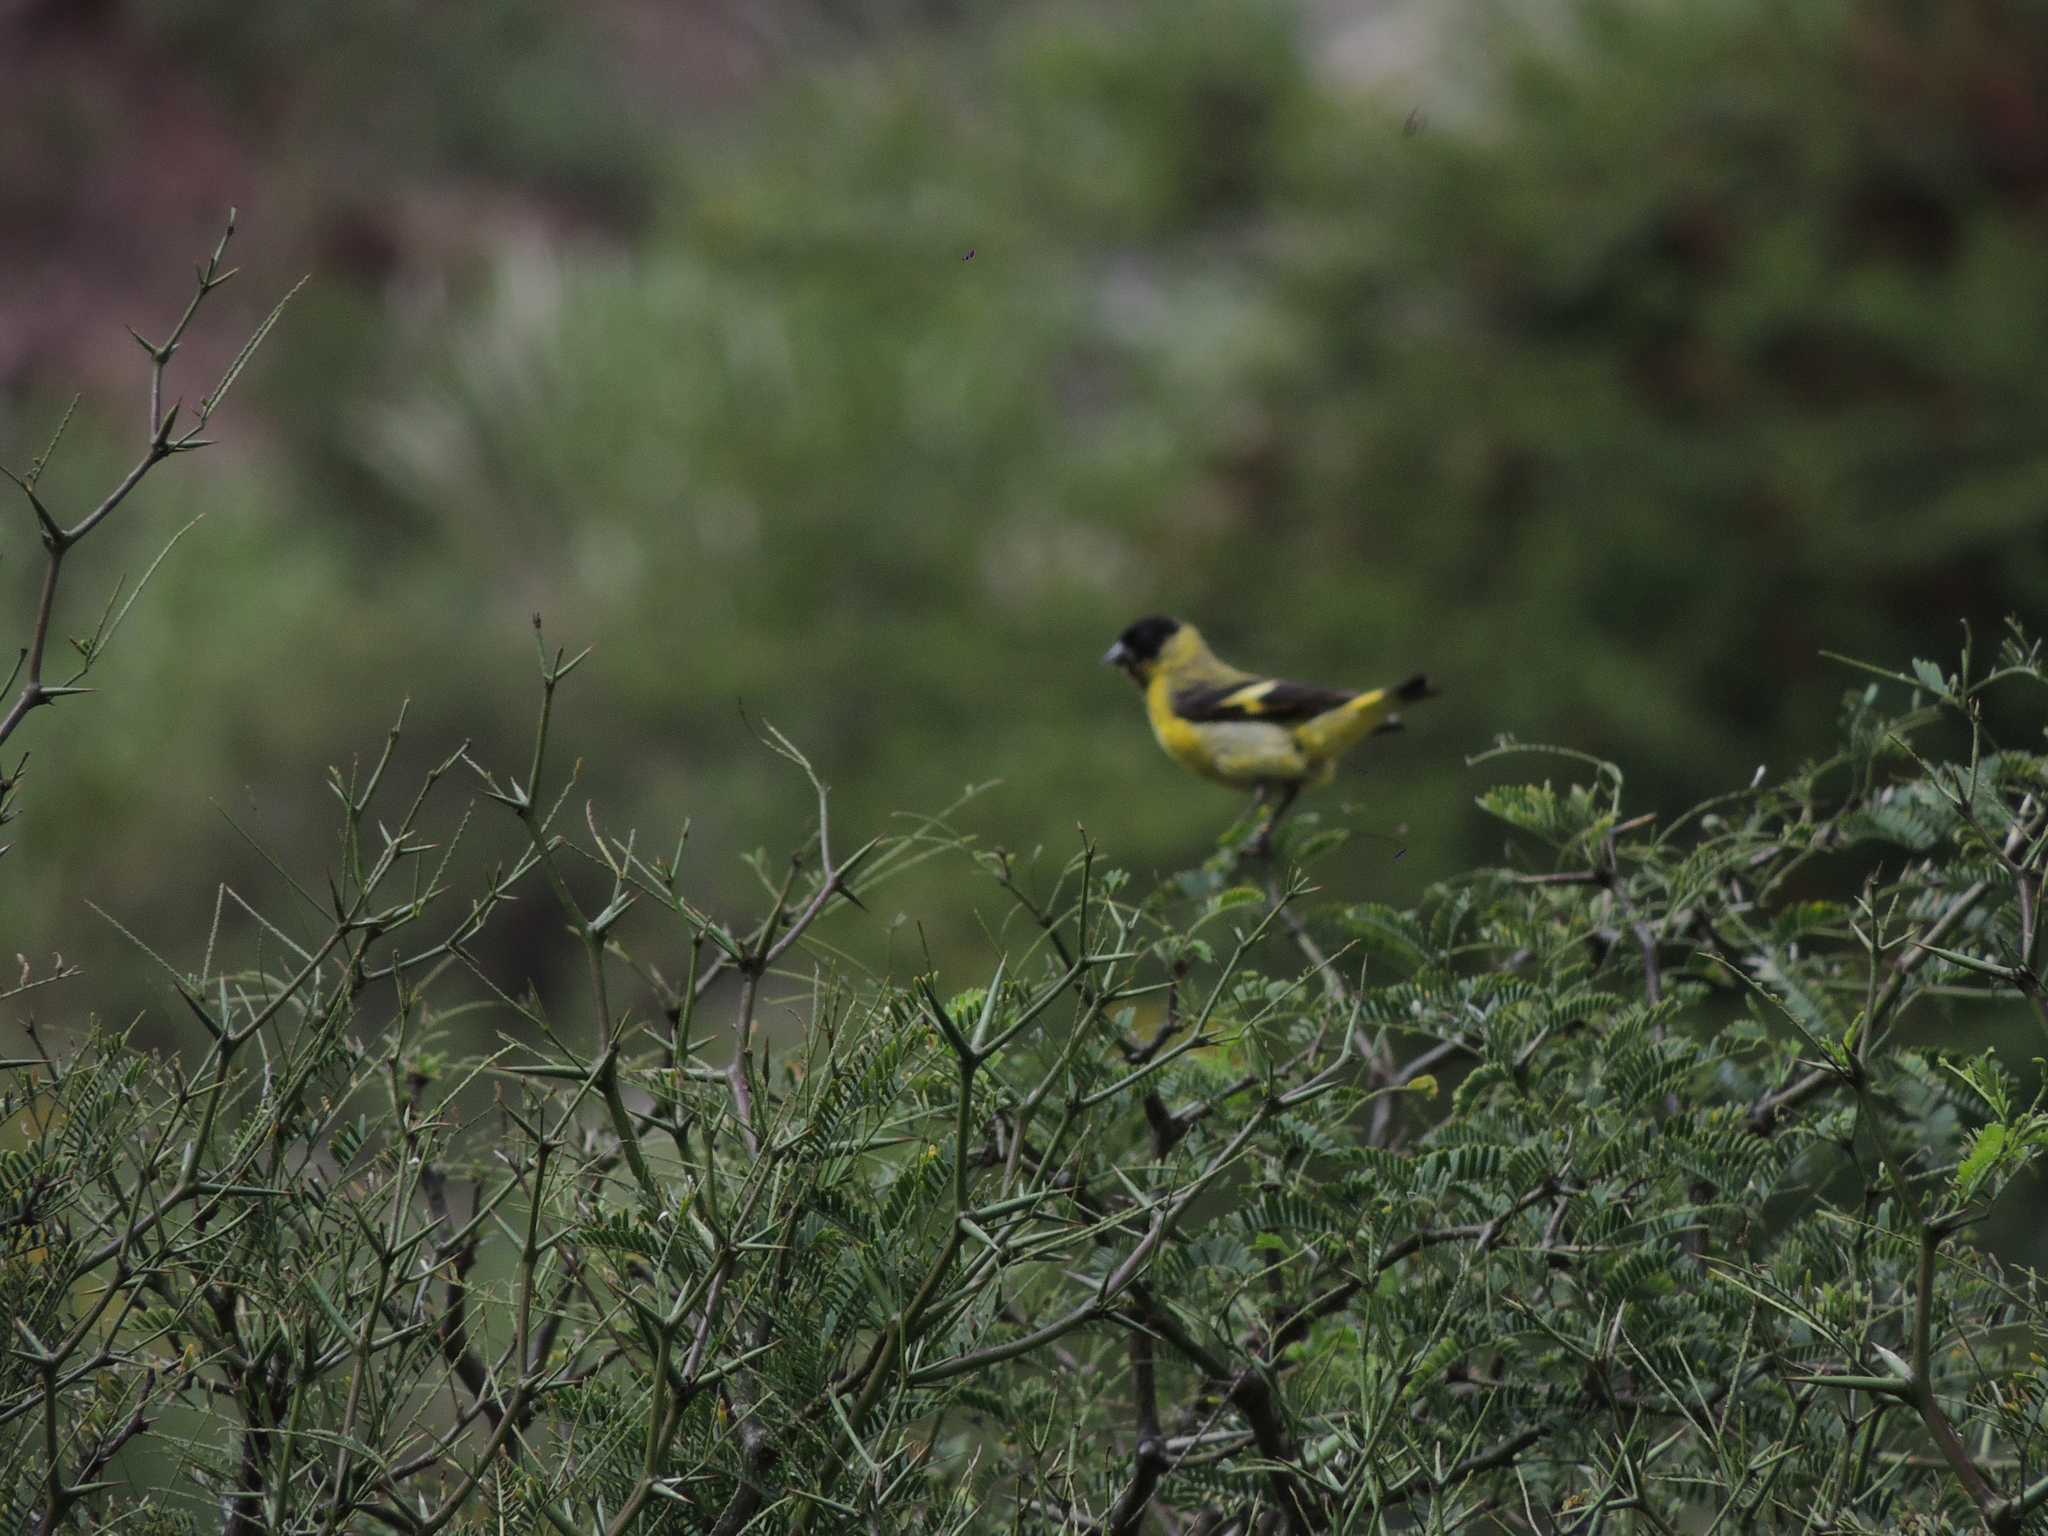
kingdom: Animalia
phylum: Chordata
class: Aves
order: Passeriformes
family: Fringillidae
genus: Spinus
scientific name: Spinus magellanicus
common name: Hooded siskin
